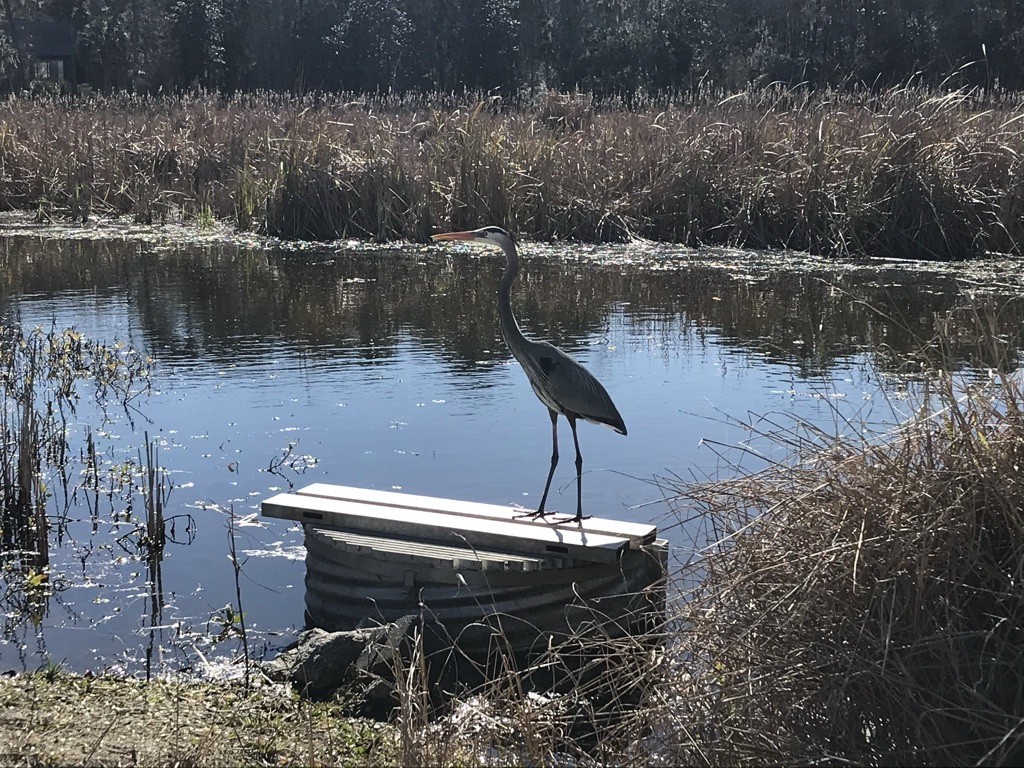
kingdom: Animalia
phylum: Chordata
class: Aves
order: Pelecaniformes
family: Ardeidae
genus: Ardea
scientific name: Ardea herodias
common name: Great blue heron
